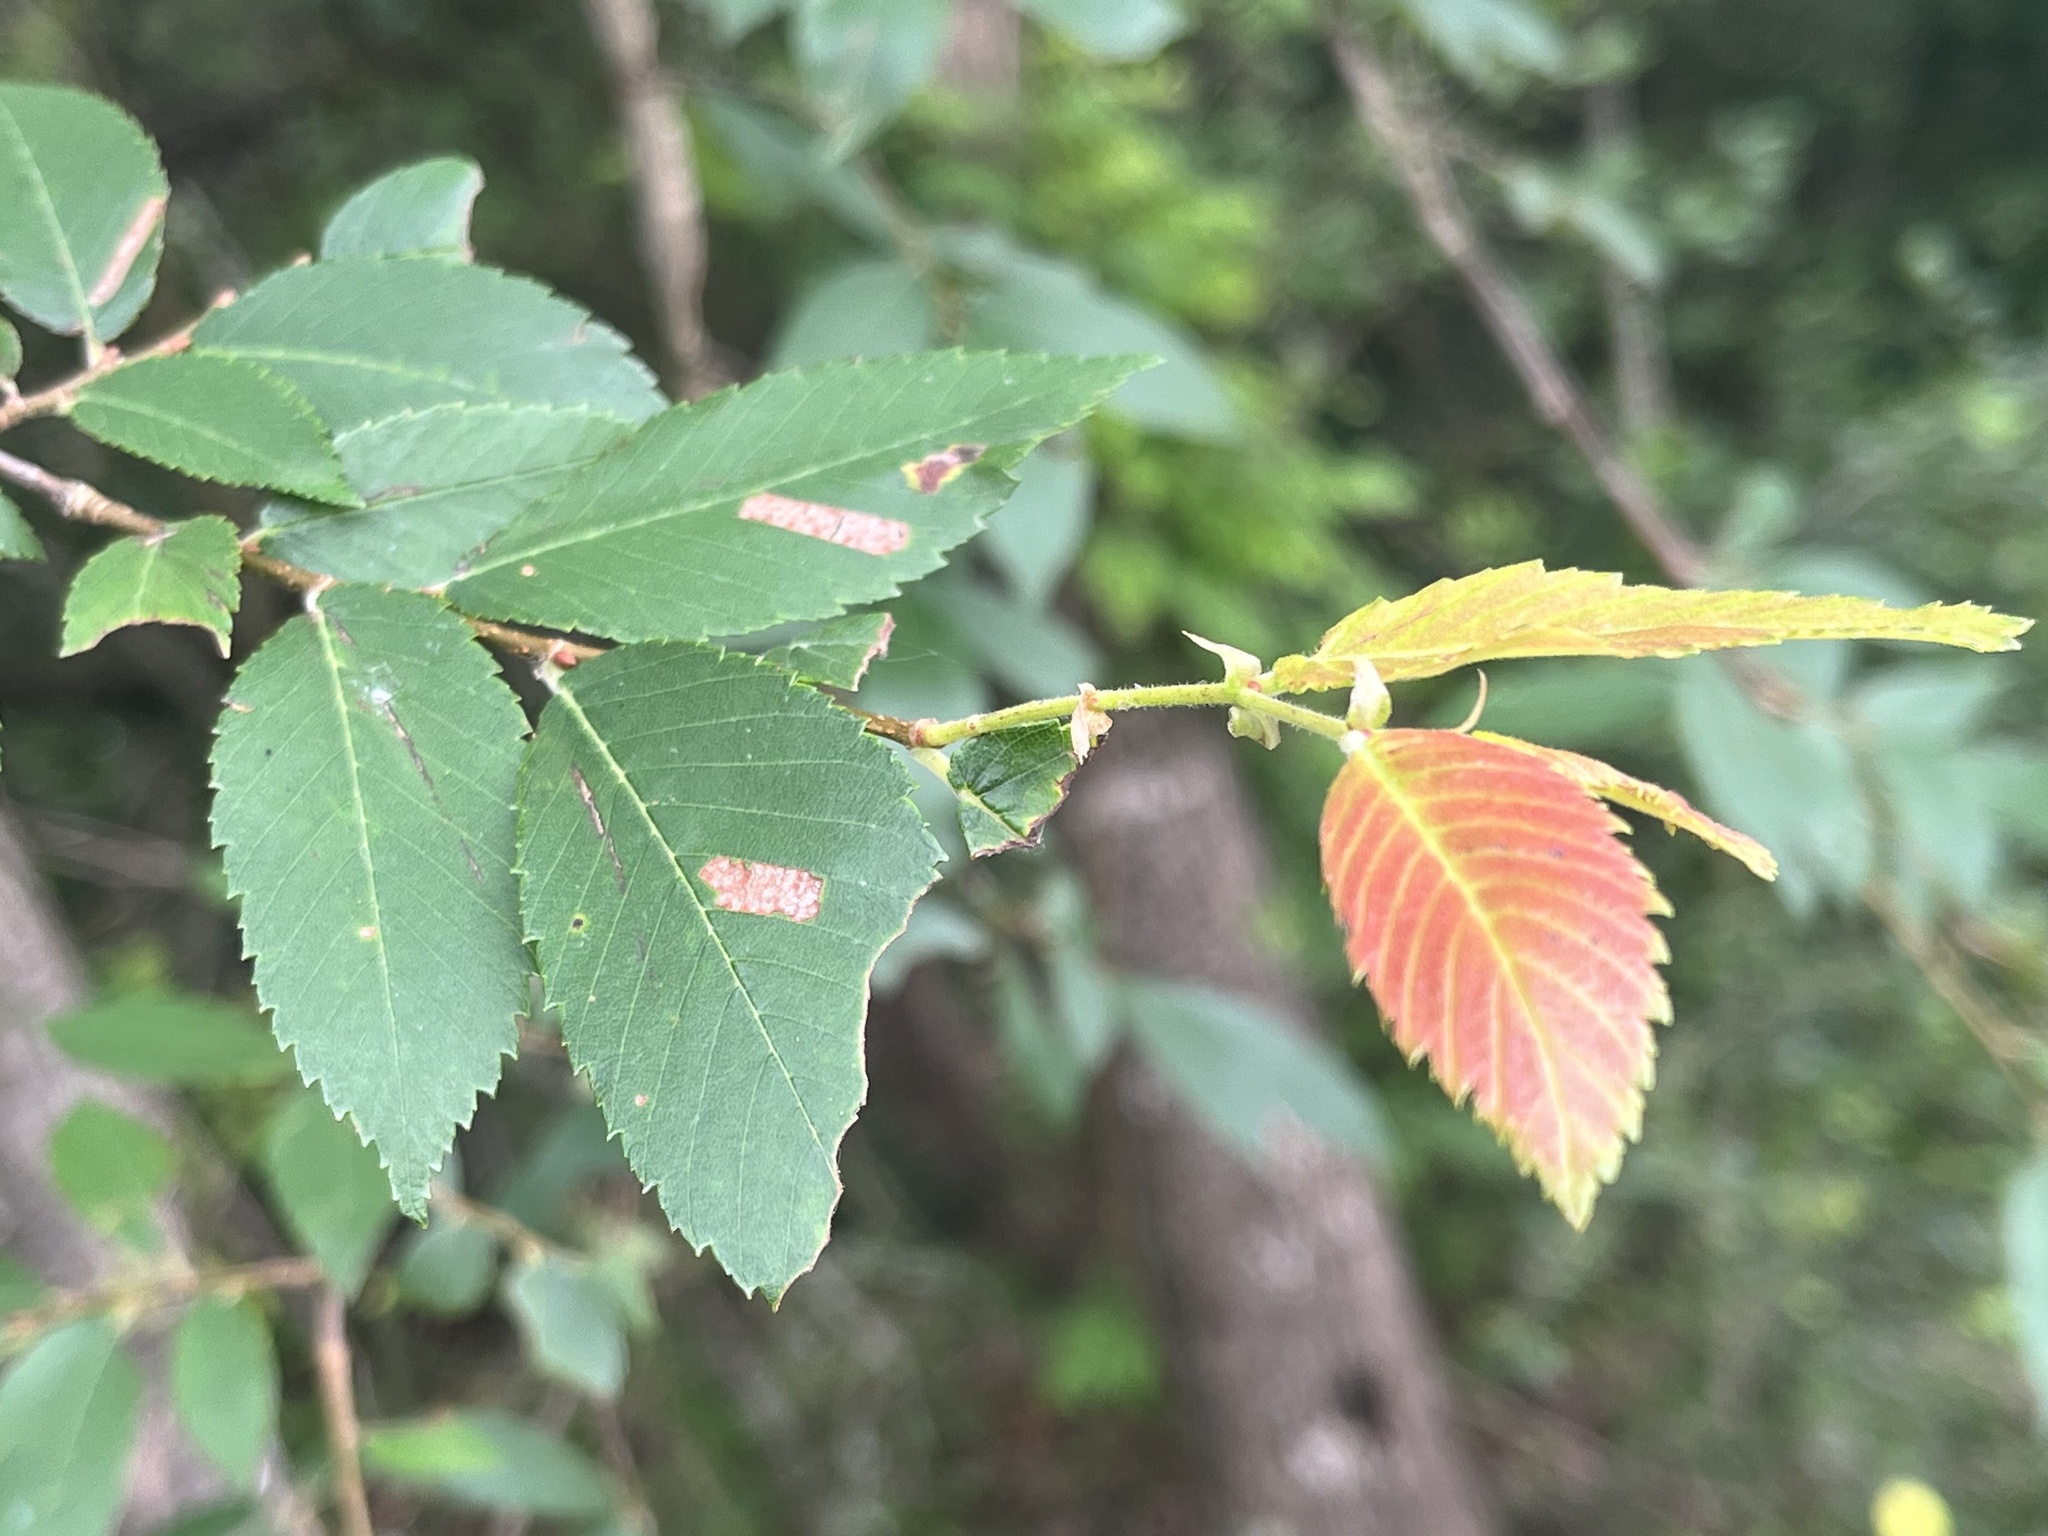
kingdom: Plantae
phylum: Tracheophyta
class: Magnoliopsida
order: Rosales
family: Ulmaceae
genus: Ulmus
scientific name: Ulmus alata
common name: Winged elm
